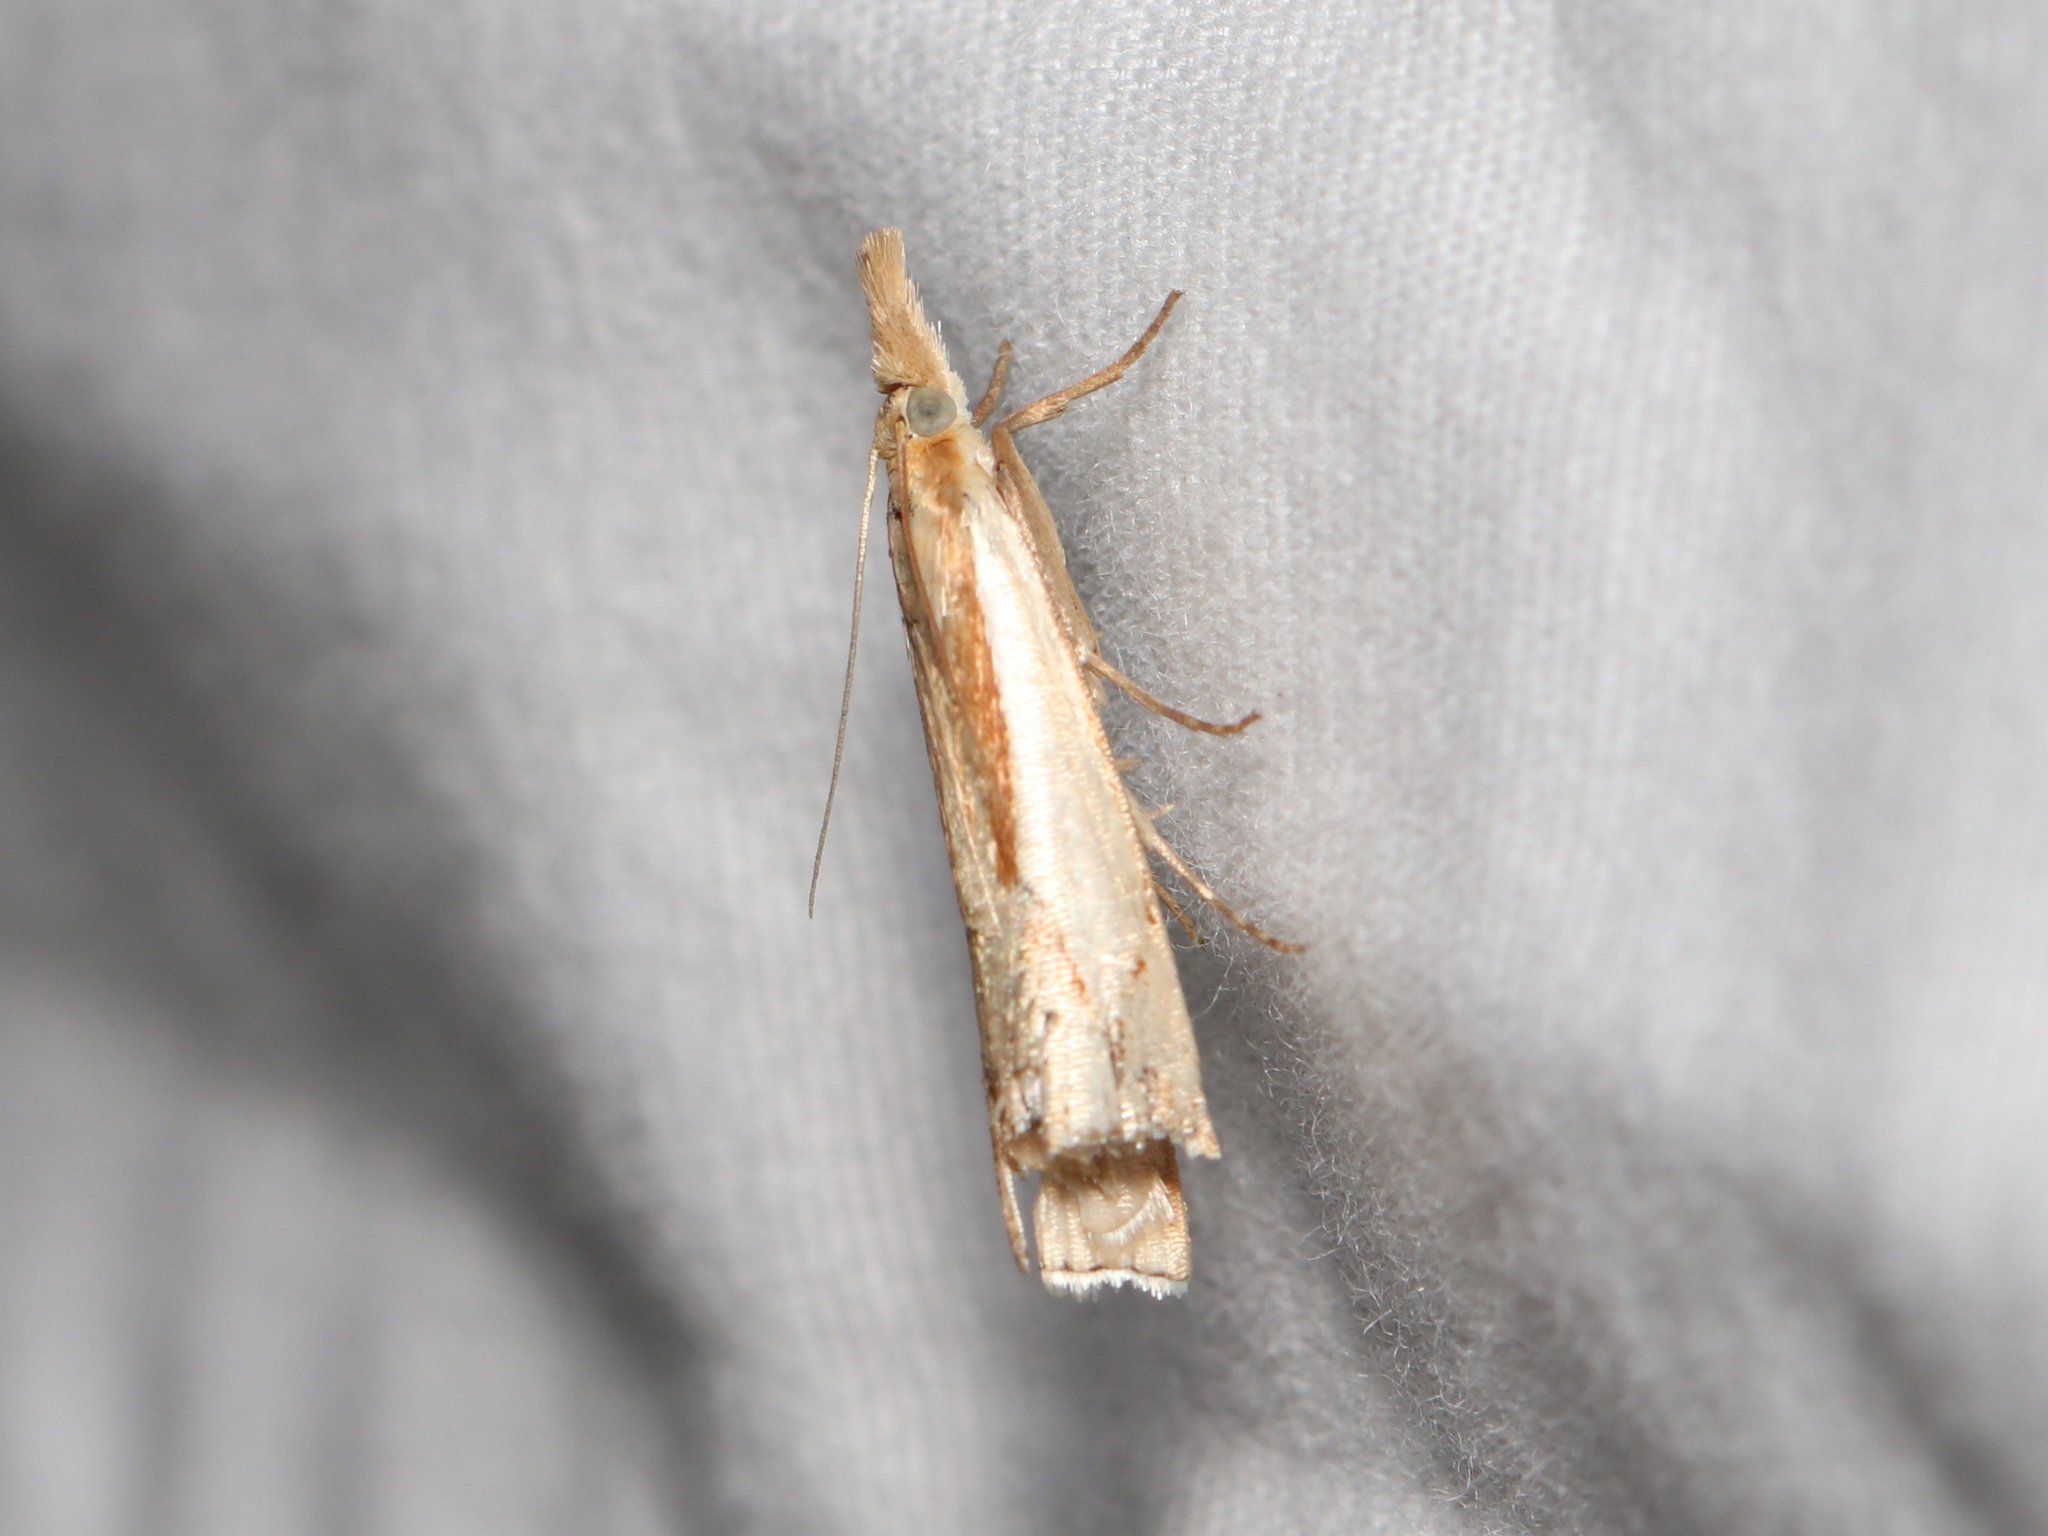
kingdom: Animalia
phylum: Arthropoda
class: Insecta
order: Lepidoptera
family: Crambidae
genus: Crambus
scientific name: Crambus agitatellus
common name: Double-banded grass-veneer
